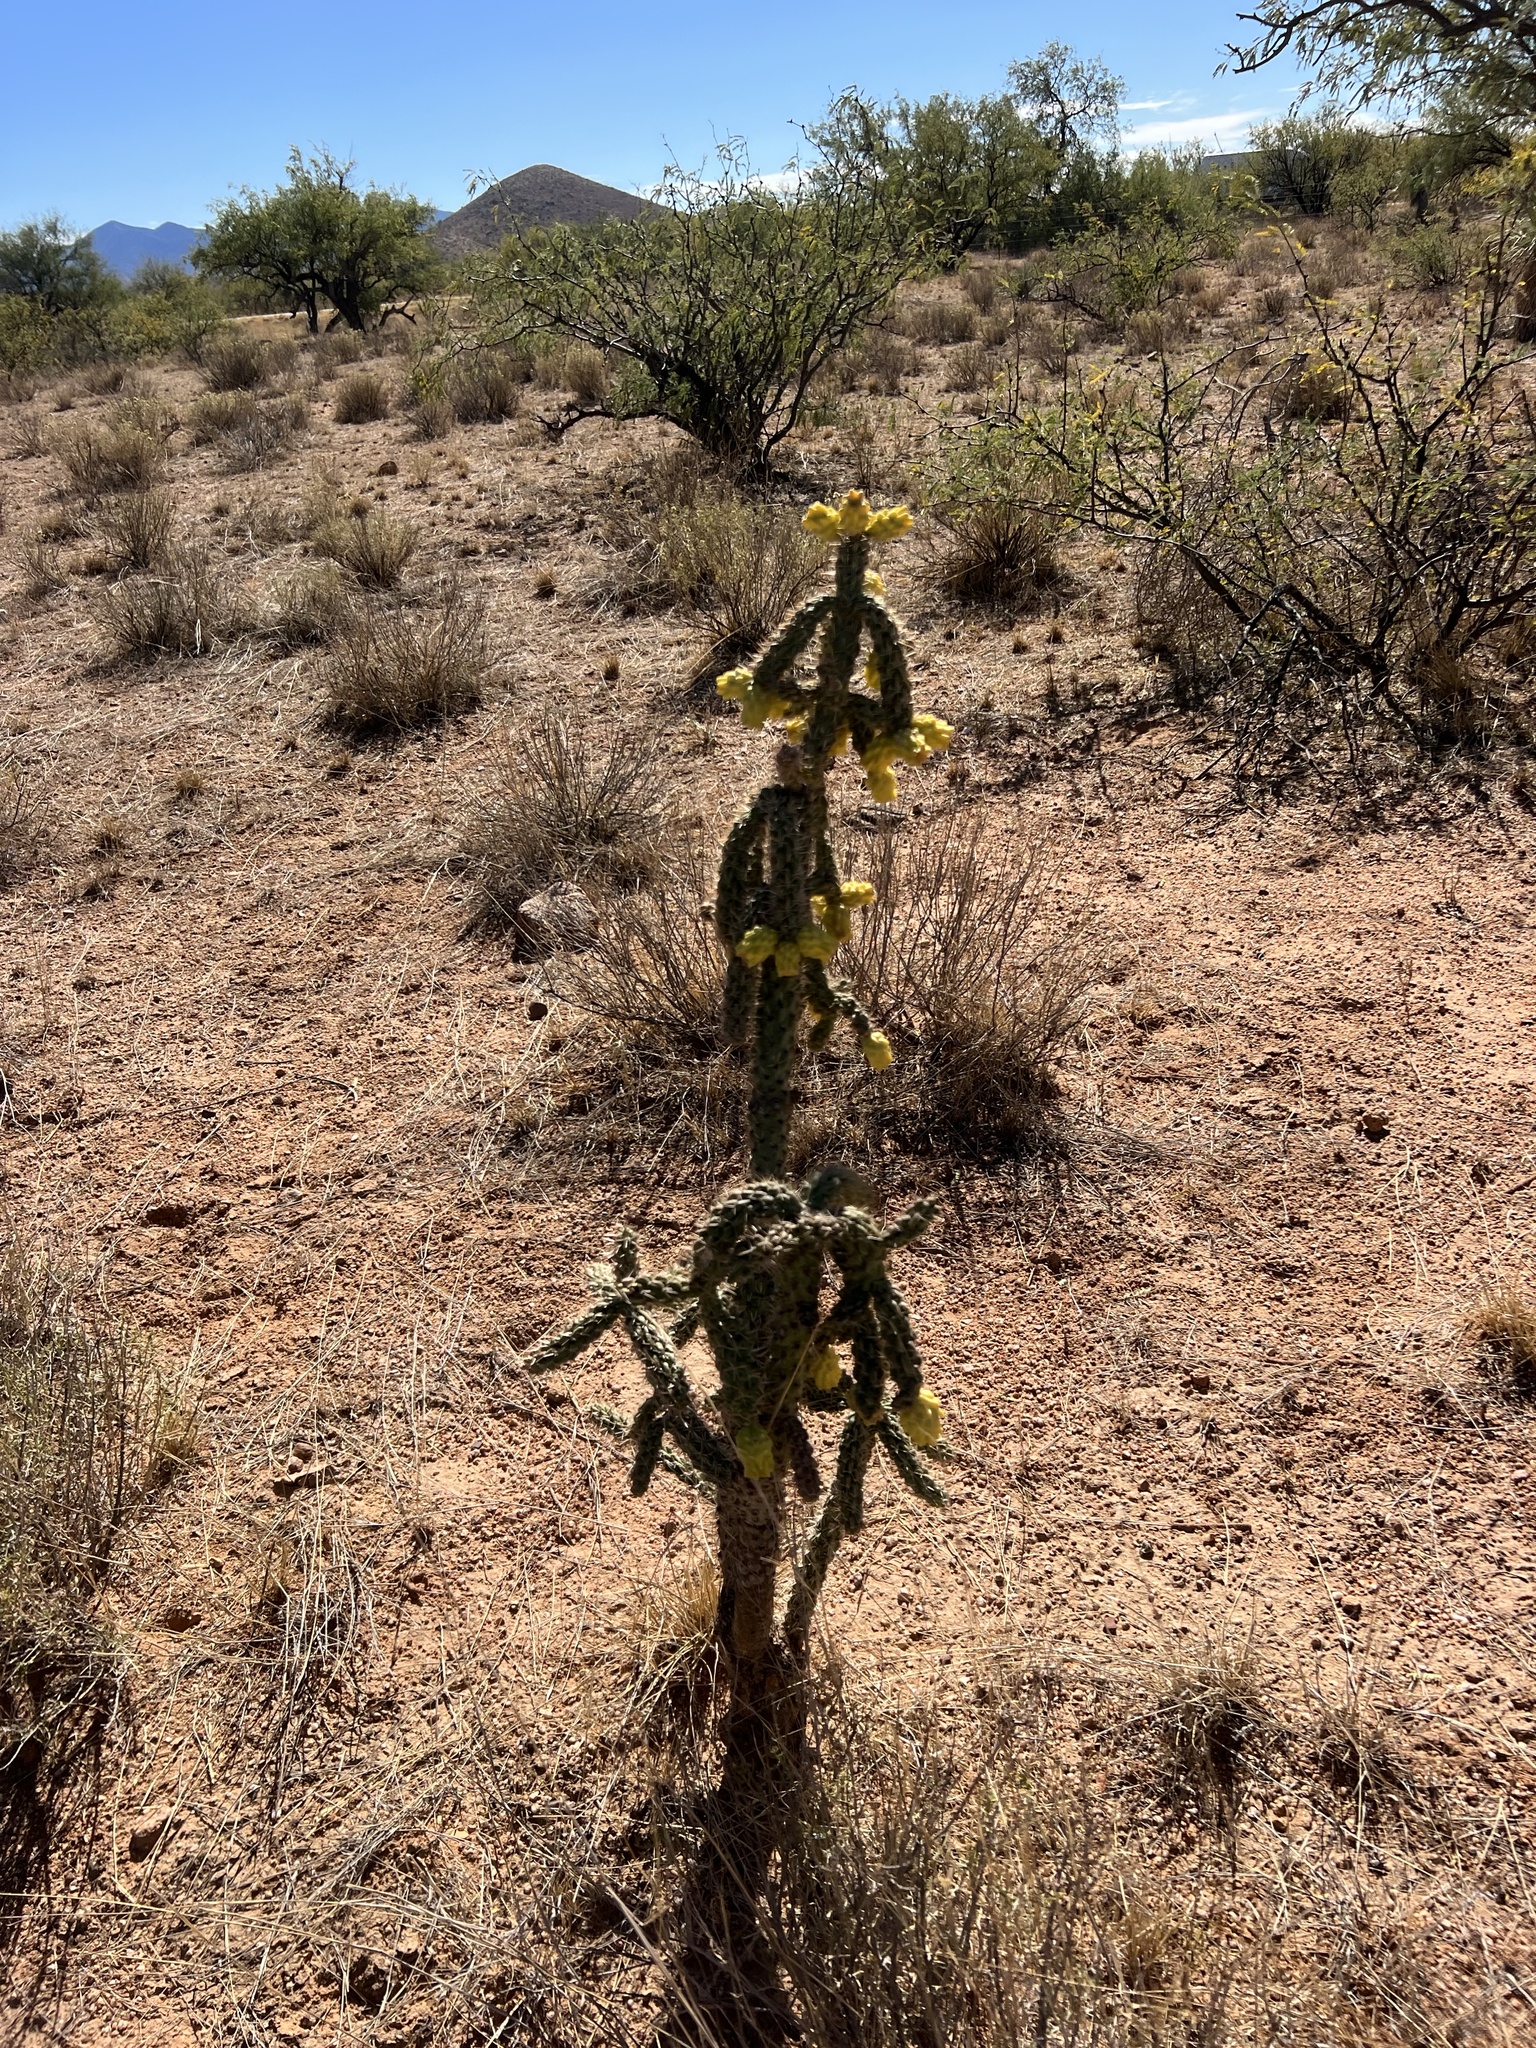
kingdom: Plantae
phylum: Tracheophyta
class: Magnoliopsida
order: Caryophyllales
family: Cactaceae
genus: Cylindropuntia
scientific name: Cylindropuntia imbricata
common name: Candelabrum cactus
